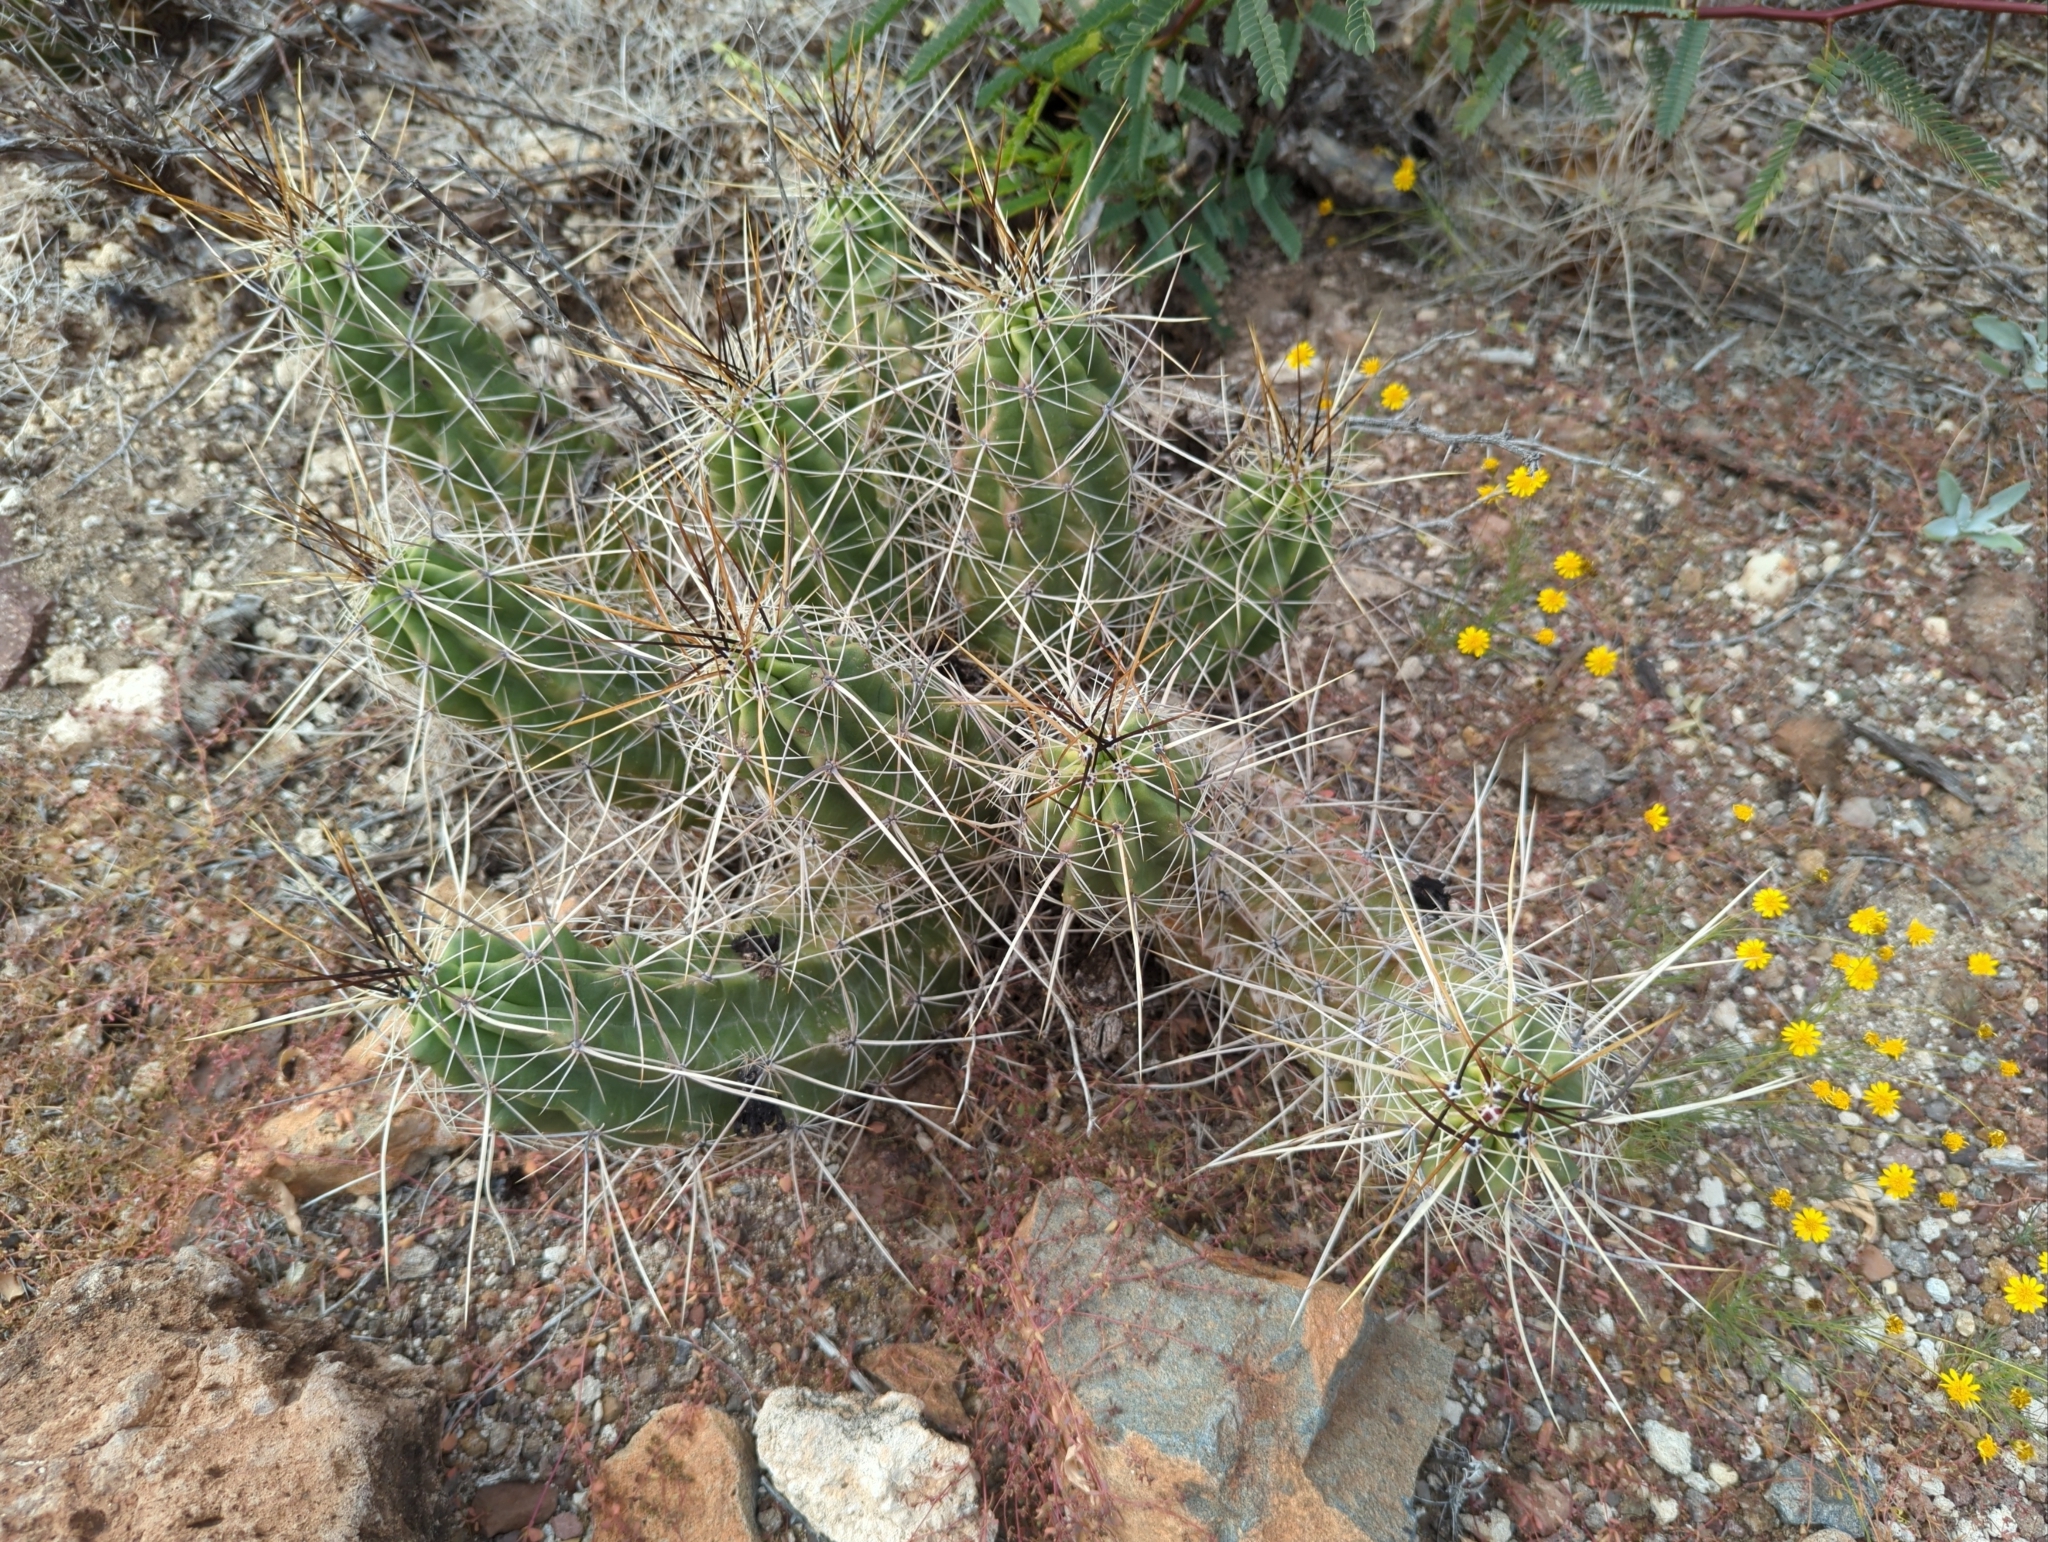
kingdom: Plantae
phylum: Tracheophyta
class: Magnoliopsida
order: Caryophyllales
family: Cactaceae
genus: Echinocereus
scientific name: Echinocereus enneacanthus
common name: Pitaya
